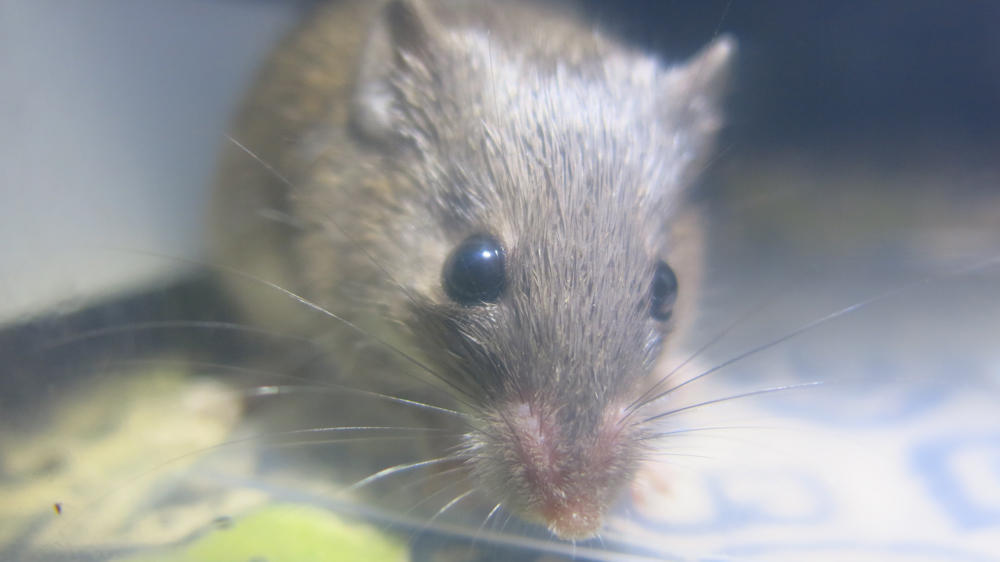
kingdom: Animalia
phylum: Chordata
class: Mammalia
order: Rodentia
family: Muridae
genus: Acomys
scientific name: Acomys selousi
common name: Selous’s spiny mouse
